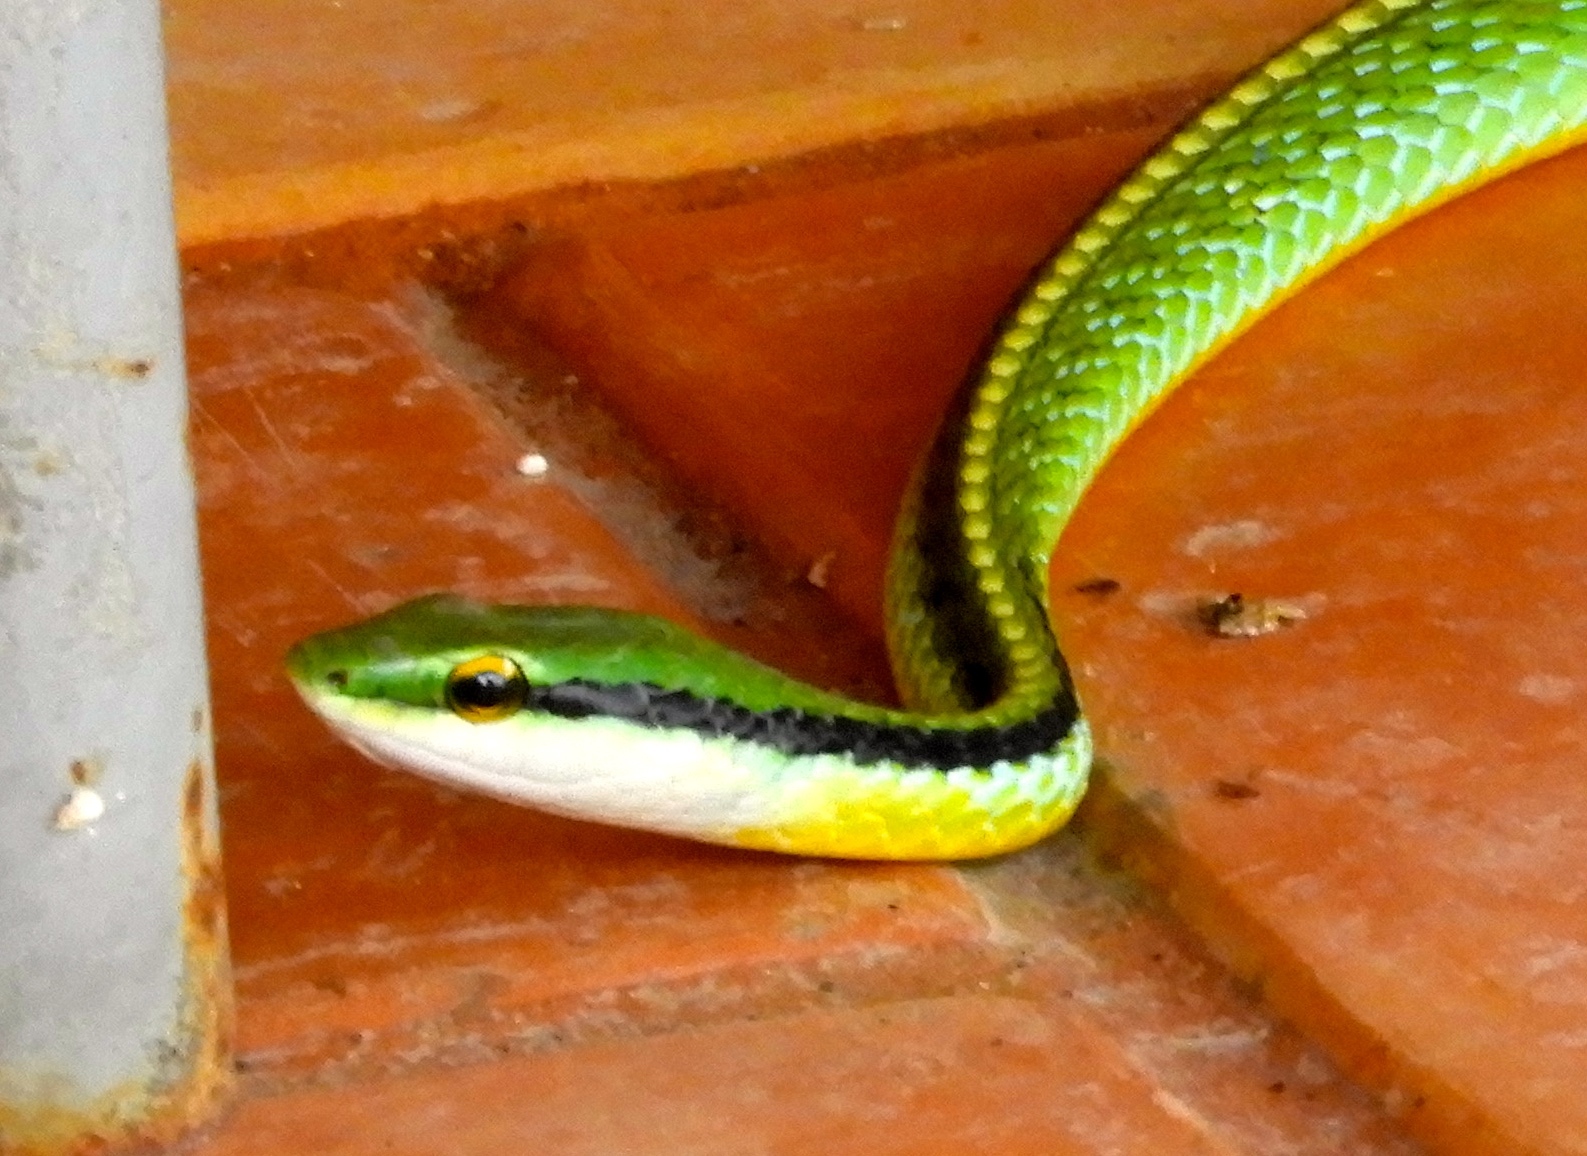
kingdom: Animalia
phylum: Chordata
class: Squamata
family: Colubridae
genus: Leptophis
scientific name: Leptophis diplotropis
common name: Pacific coast parrot snake
